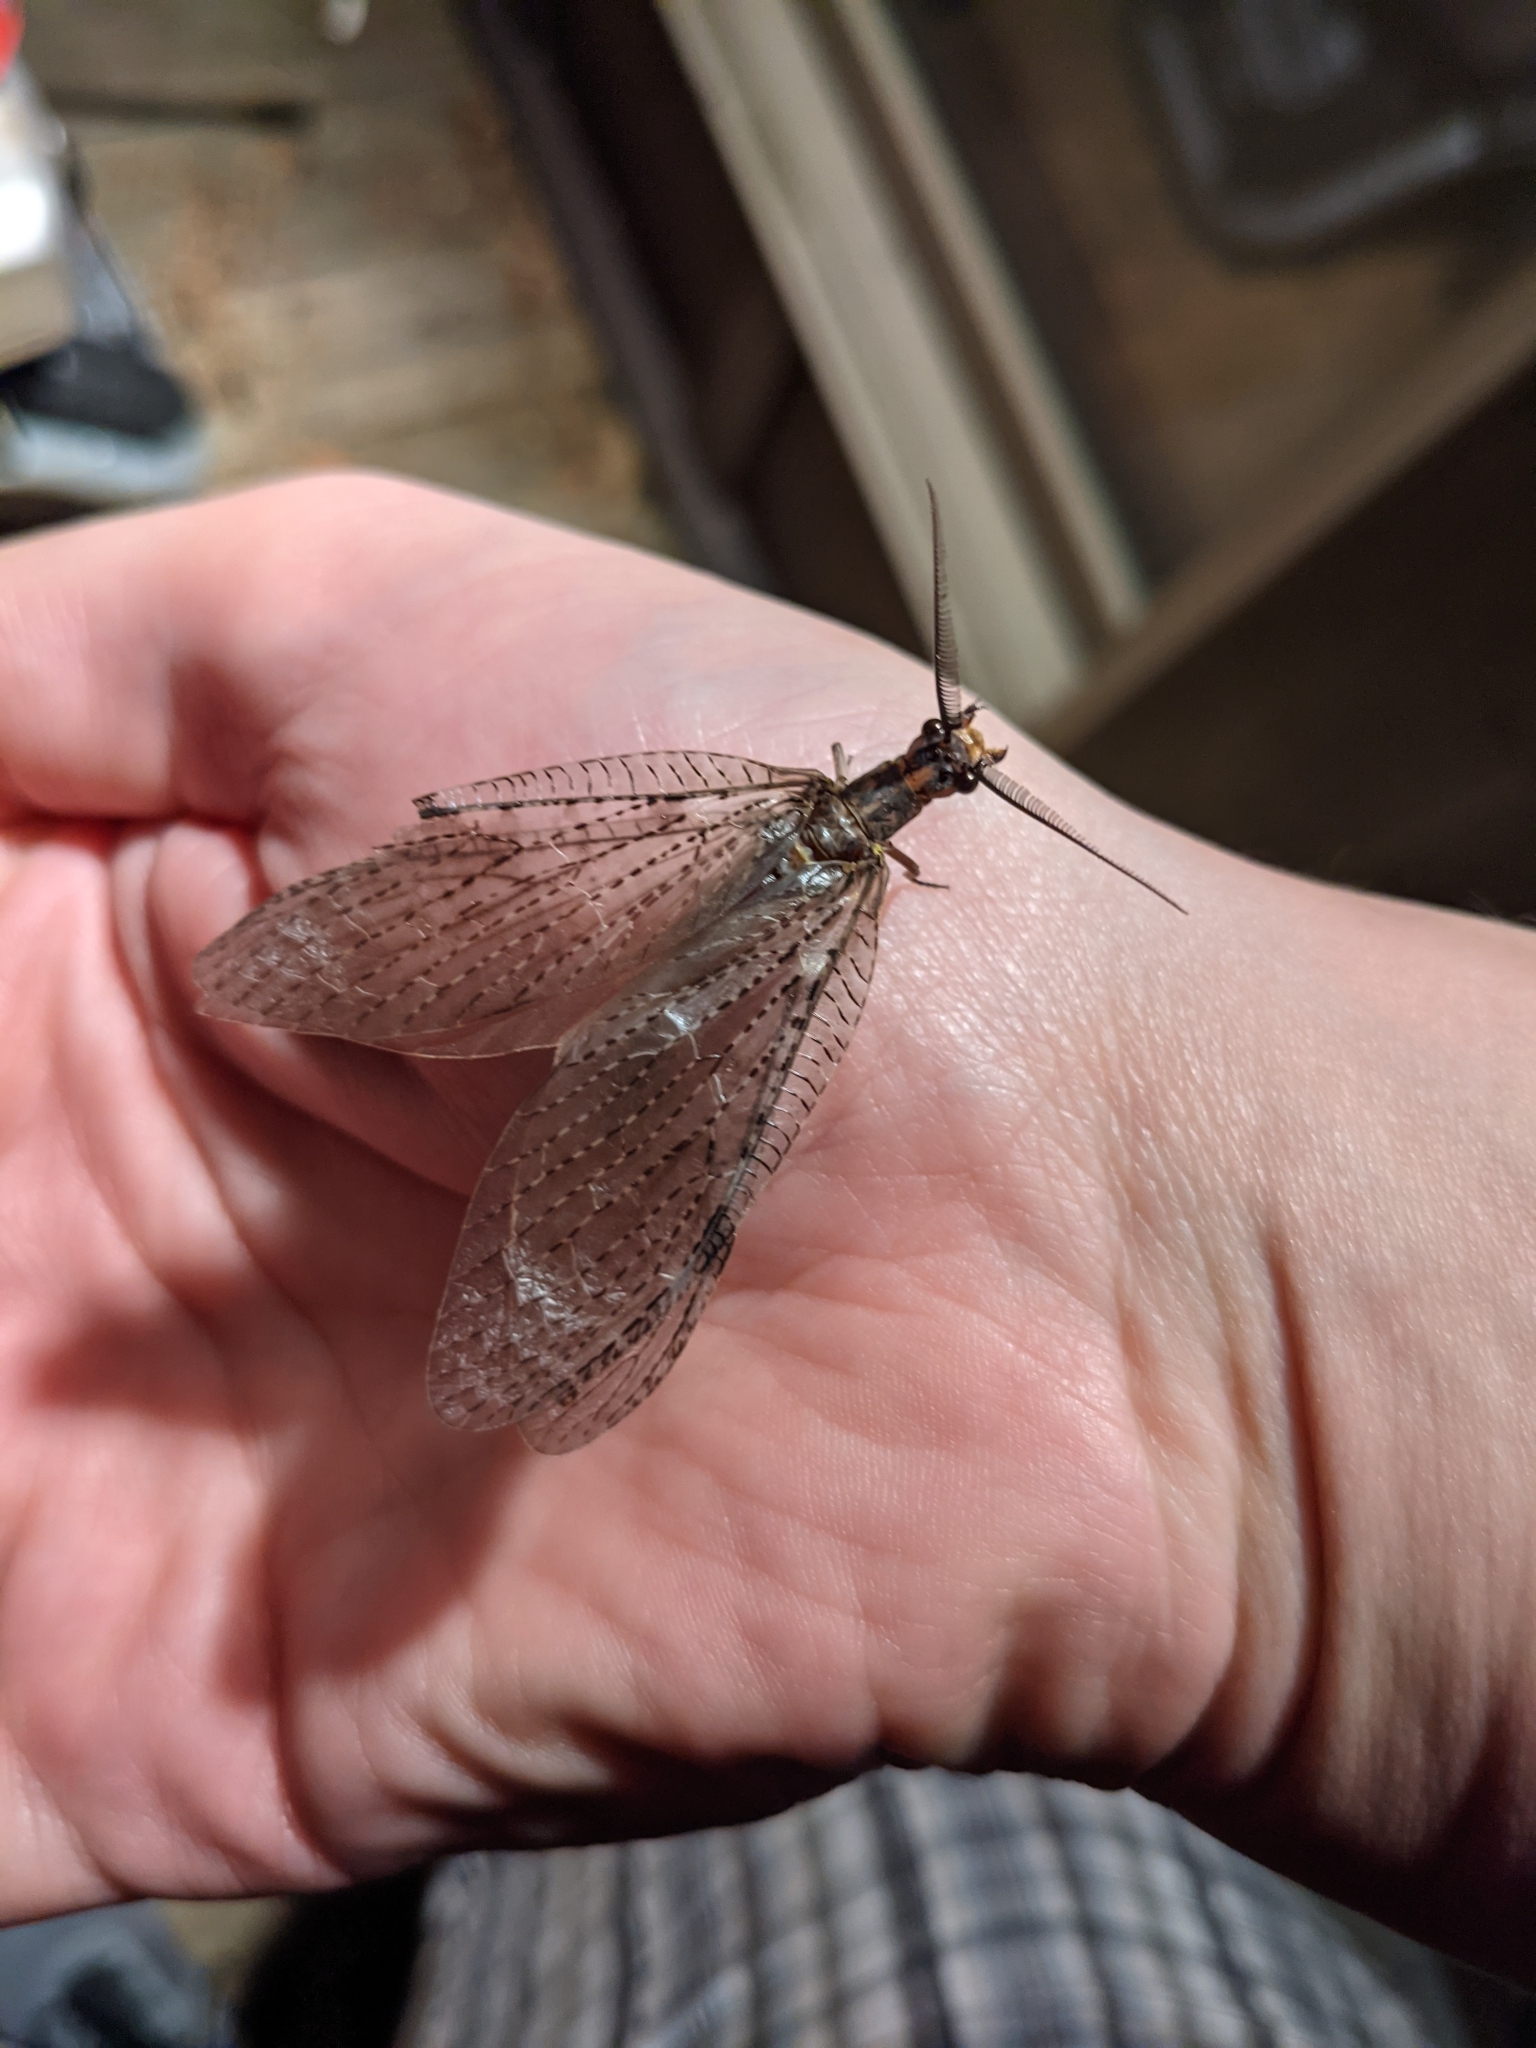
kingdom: Animalia
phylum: Arthropoda
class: Insecta
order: Megaloptera
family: Corydalidae
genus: Chauliodes
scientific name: Chauliodes pectinicornis
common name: Summer fishfly
